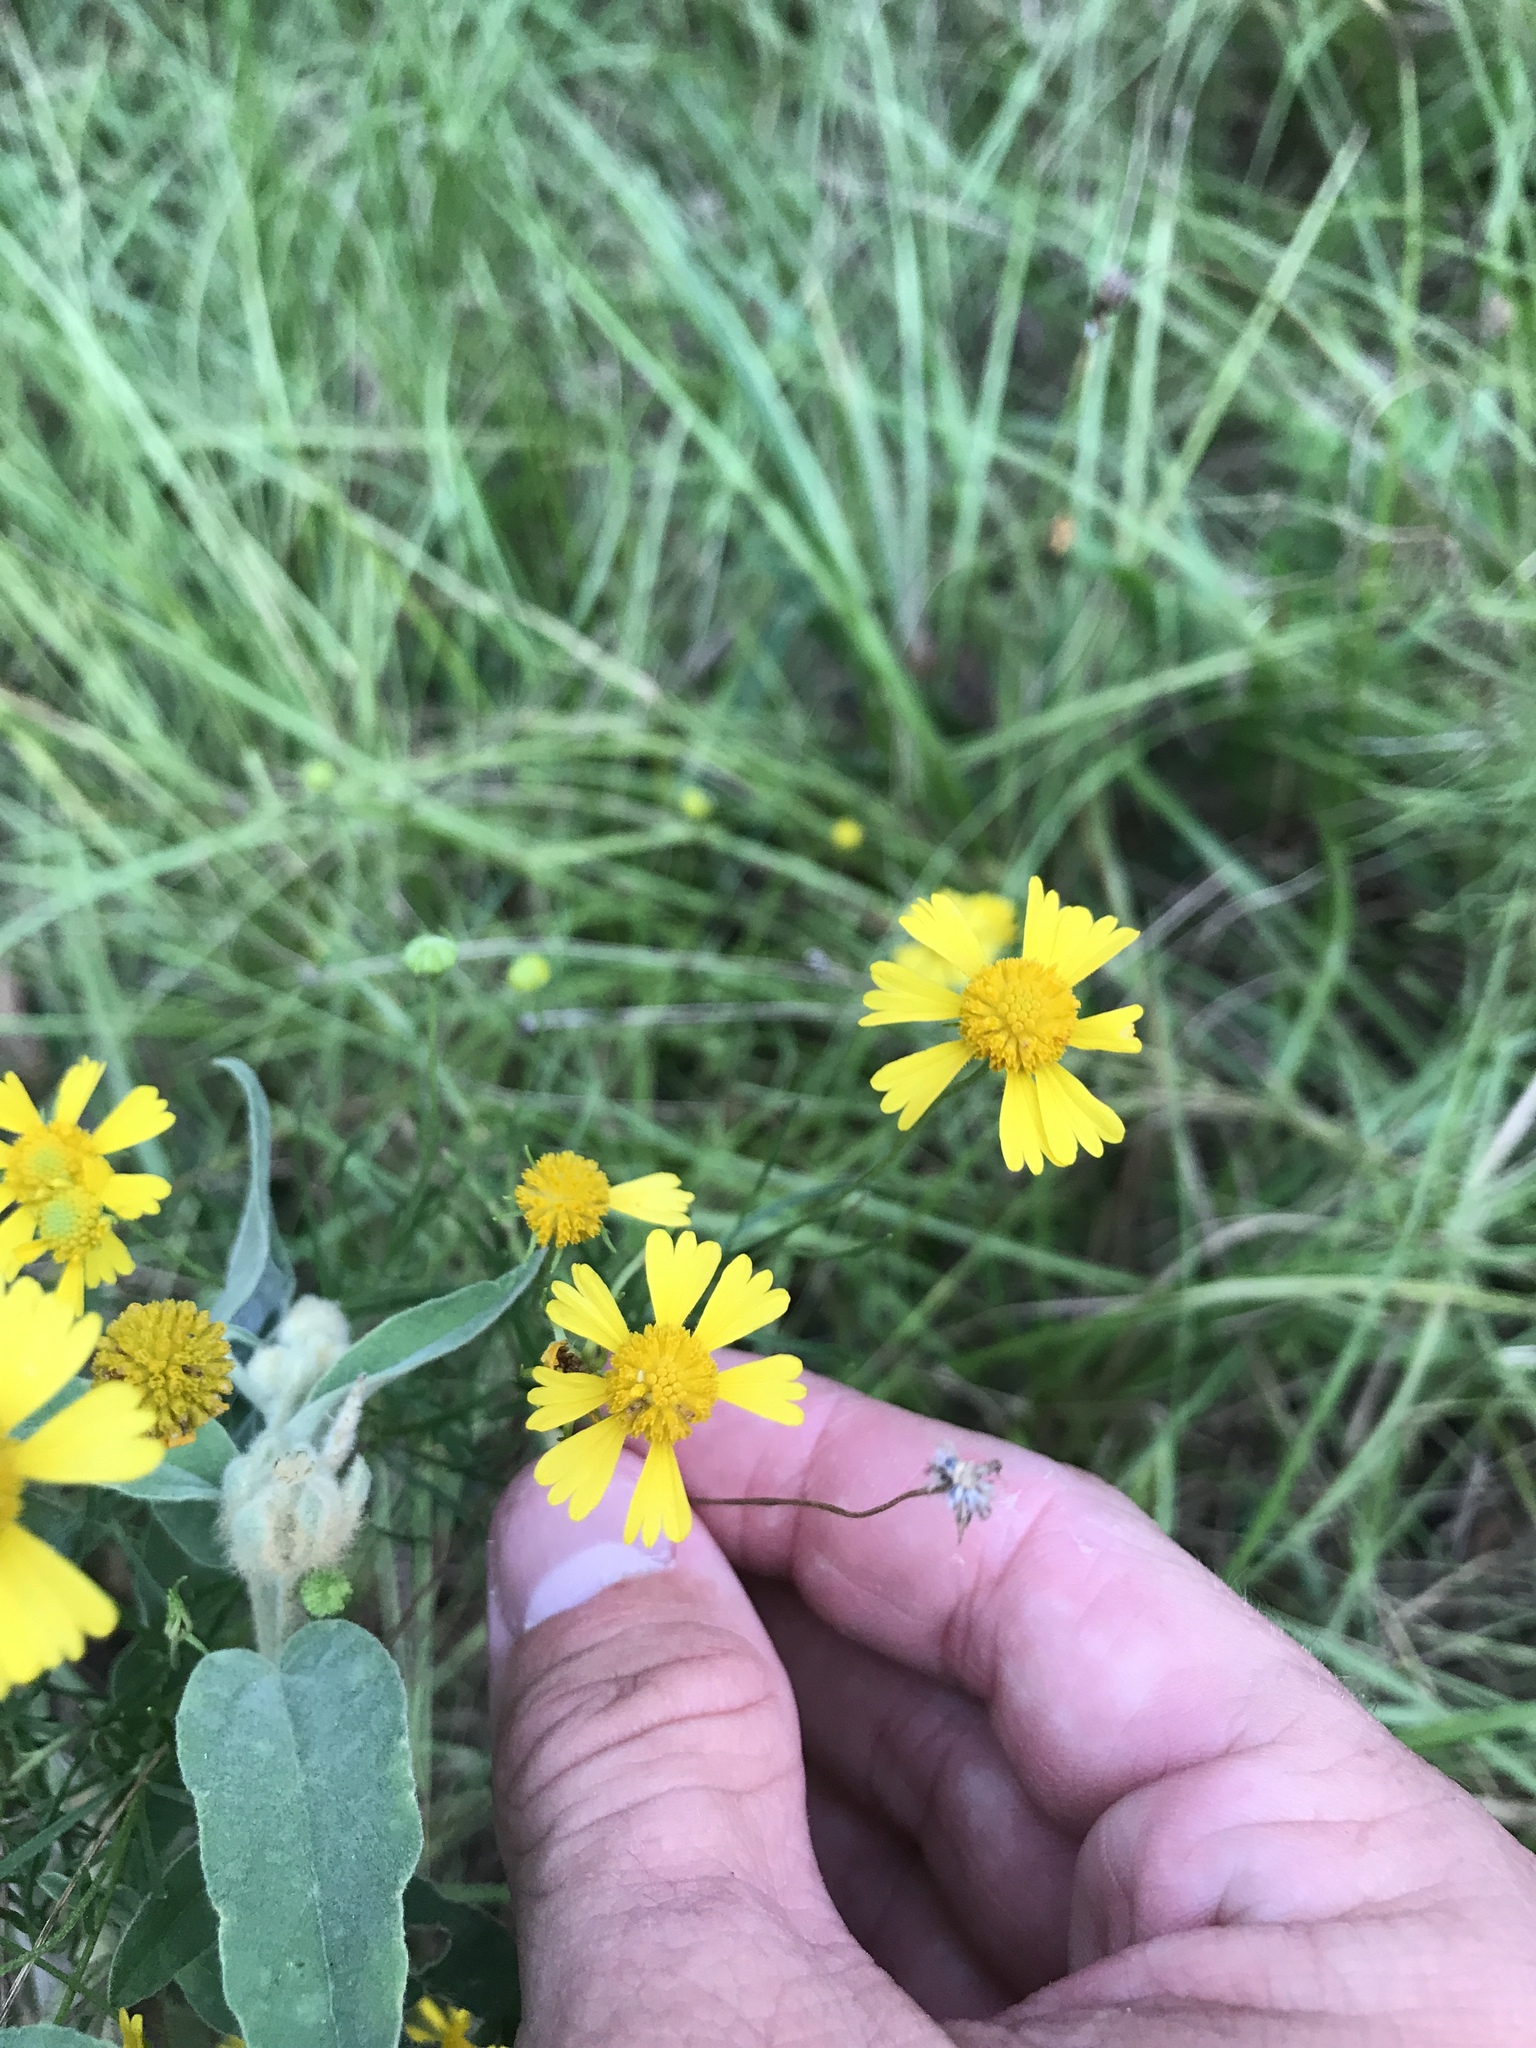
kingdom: Plantae
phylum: Tracheophyta
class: Magnoliopsida
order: Asterales
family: Asteraceae
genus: Helenium
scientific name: Helenium amarum
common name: Bitter sneezeweed
